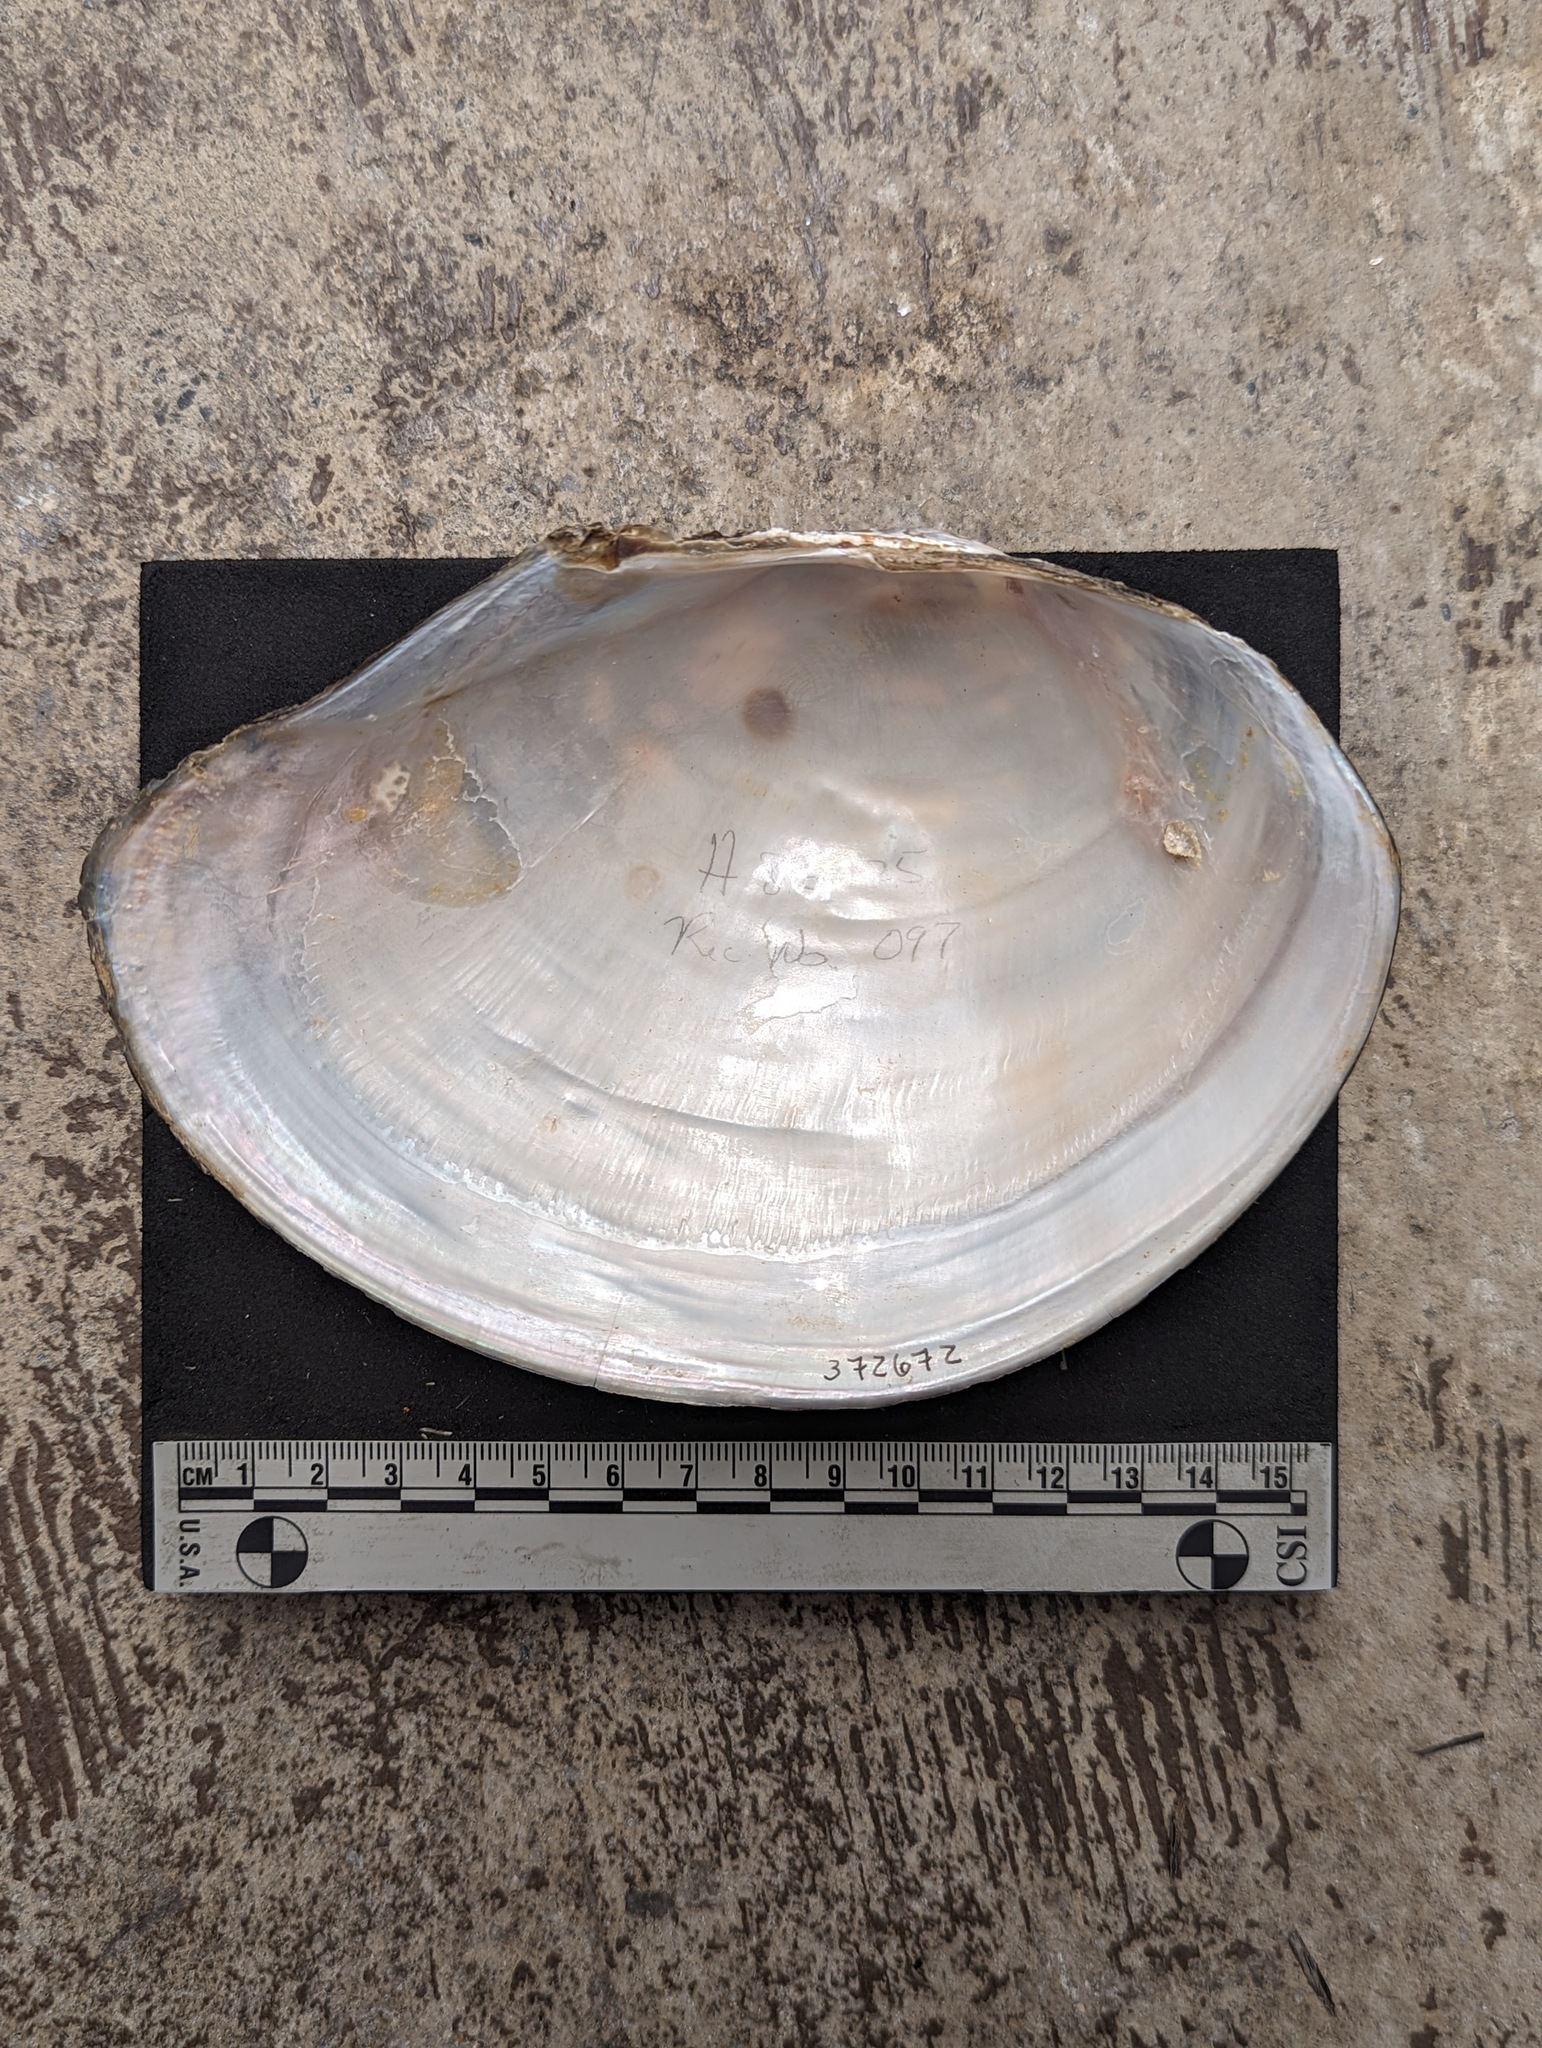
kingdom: Animalia
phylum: Mollusca
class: Bivalvia
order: Unionida
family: Unionidae
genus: Utterbackiana
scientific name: Utterbackiana suborbiculata
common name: Flat floater
